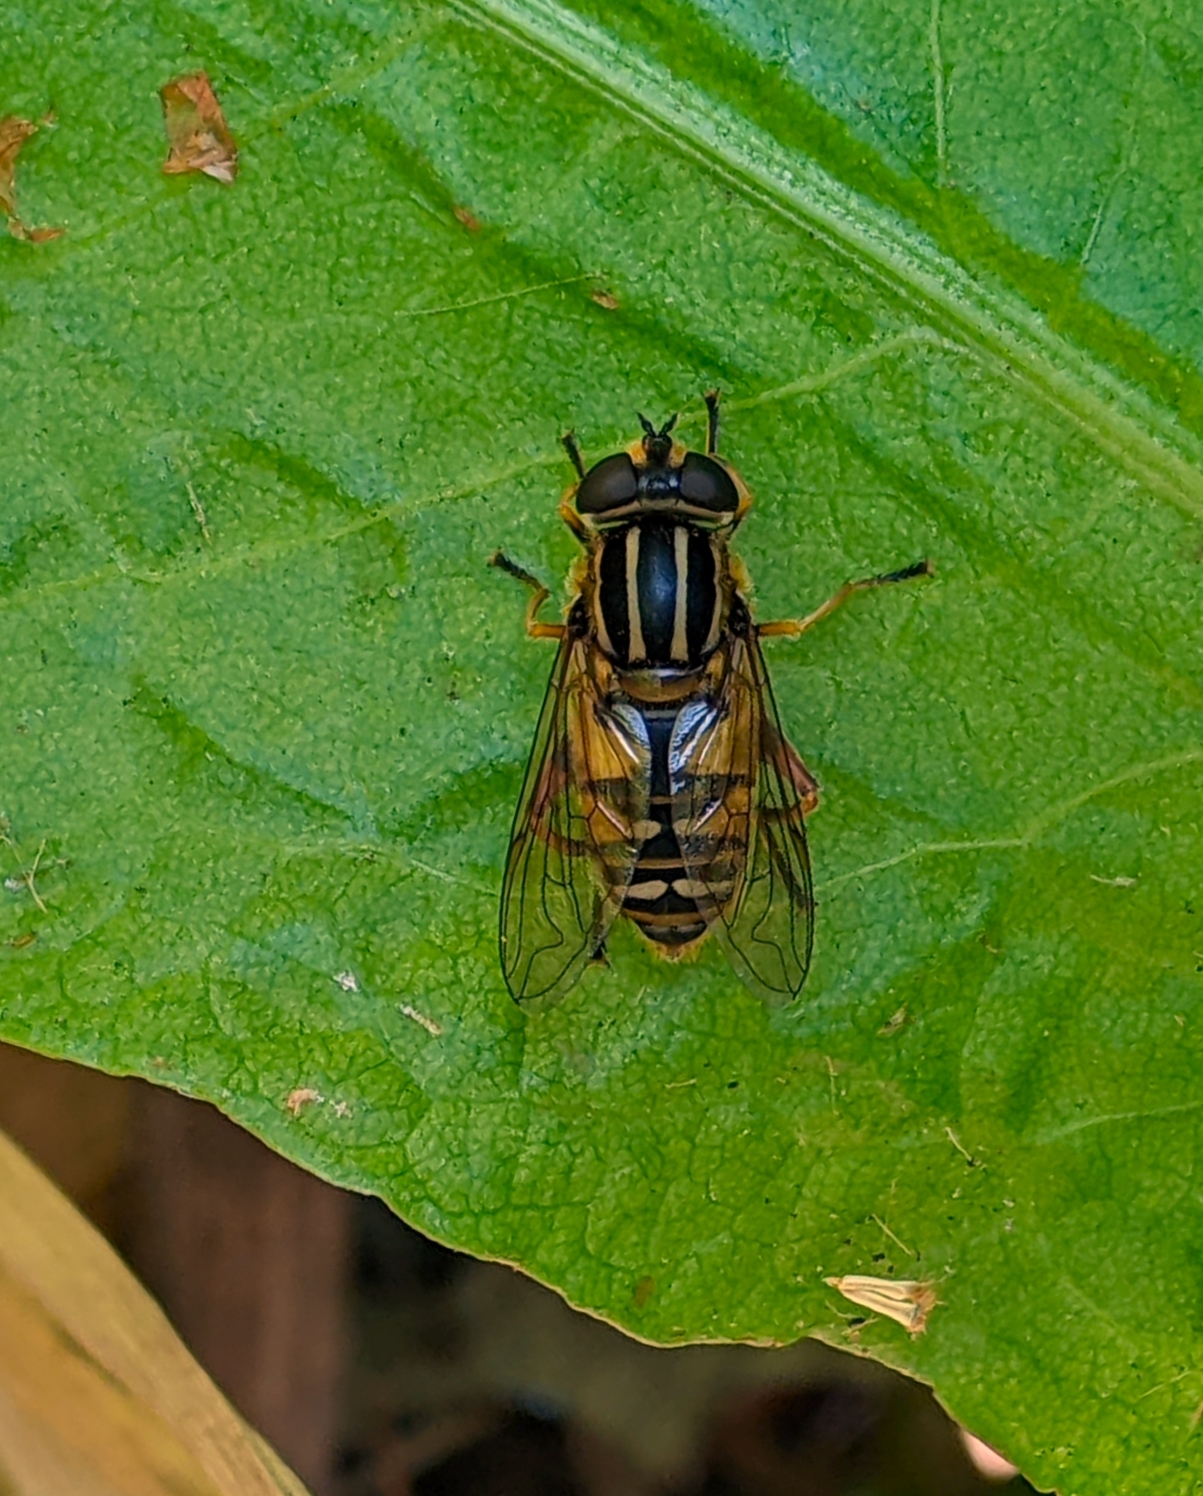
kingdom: Animalia
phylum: Arthropoda
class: Insecta
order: Diptera
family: Syrphidae
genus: Helophilus
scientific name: Helophilus pendulus
